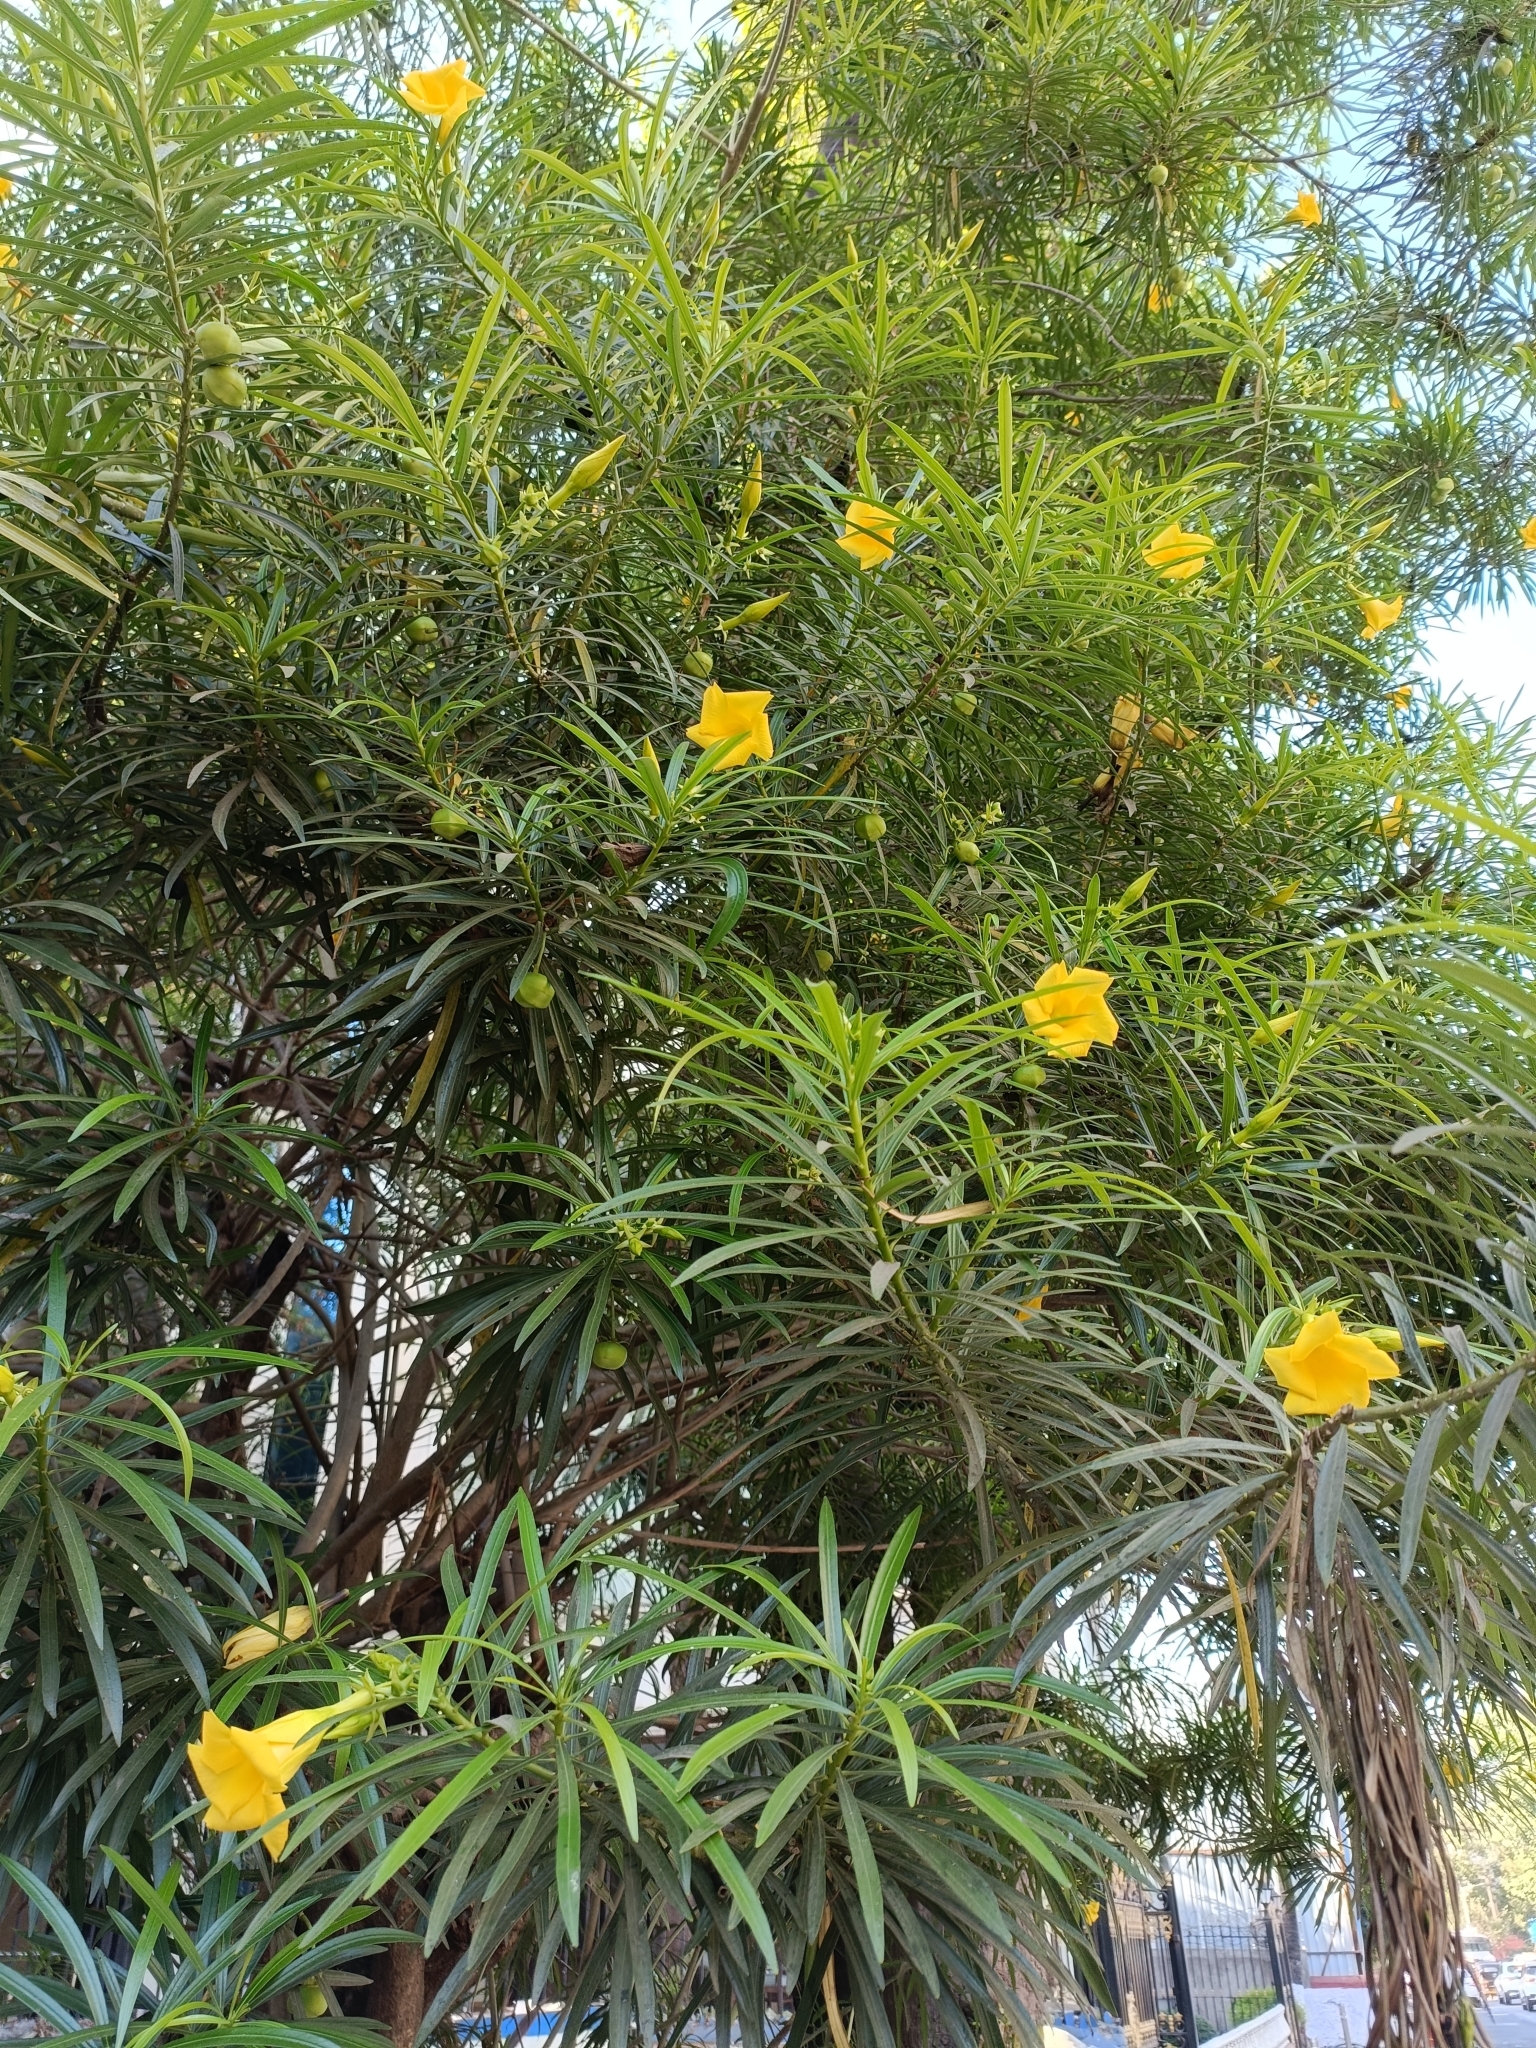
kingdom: Plantae
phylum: Tracheophyta
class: Magnoliopsida
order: Gentianales
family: Apocynaceae
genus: Cascabela
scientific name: Cascabela thevetia
